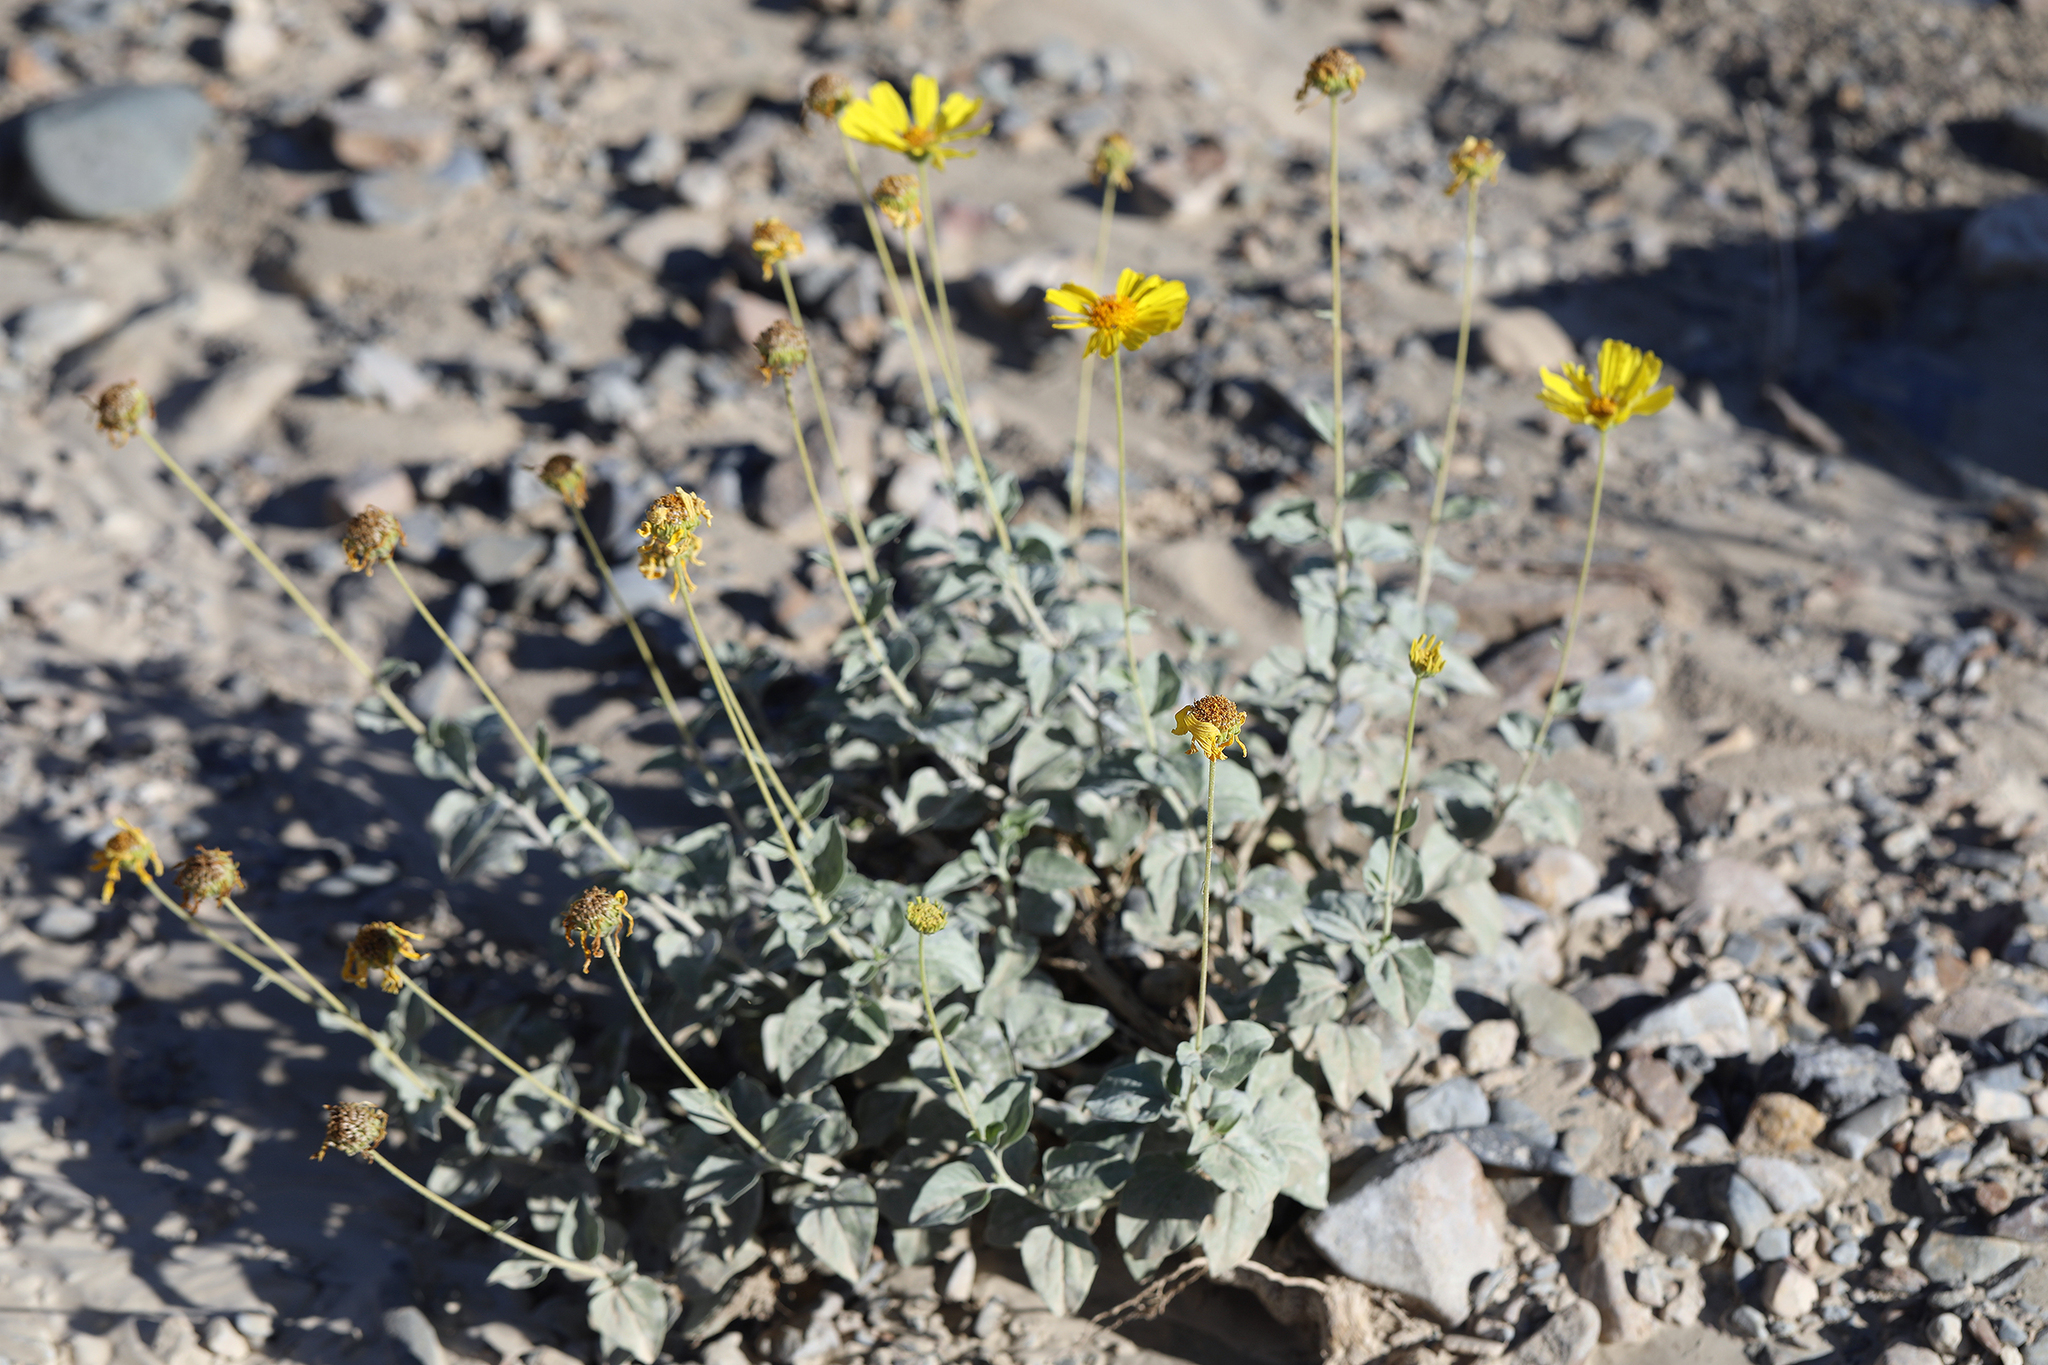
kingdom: Plantae
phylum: Tracheophyta
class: Magnoliopsida
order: Asterales
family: Asteraceae
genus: Encelia
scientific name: Encelia actoni
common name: Acton encelia
